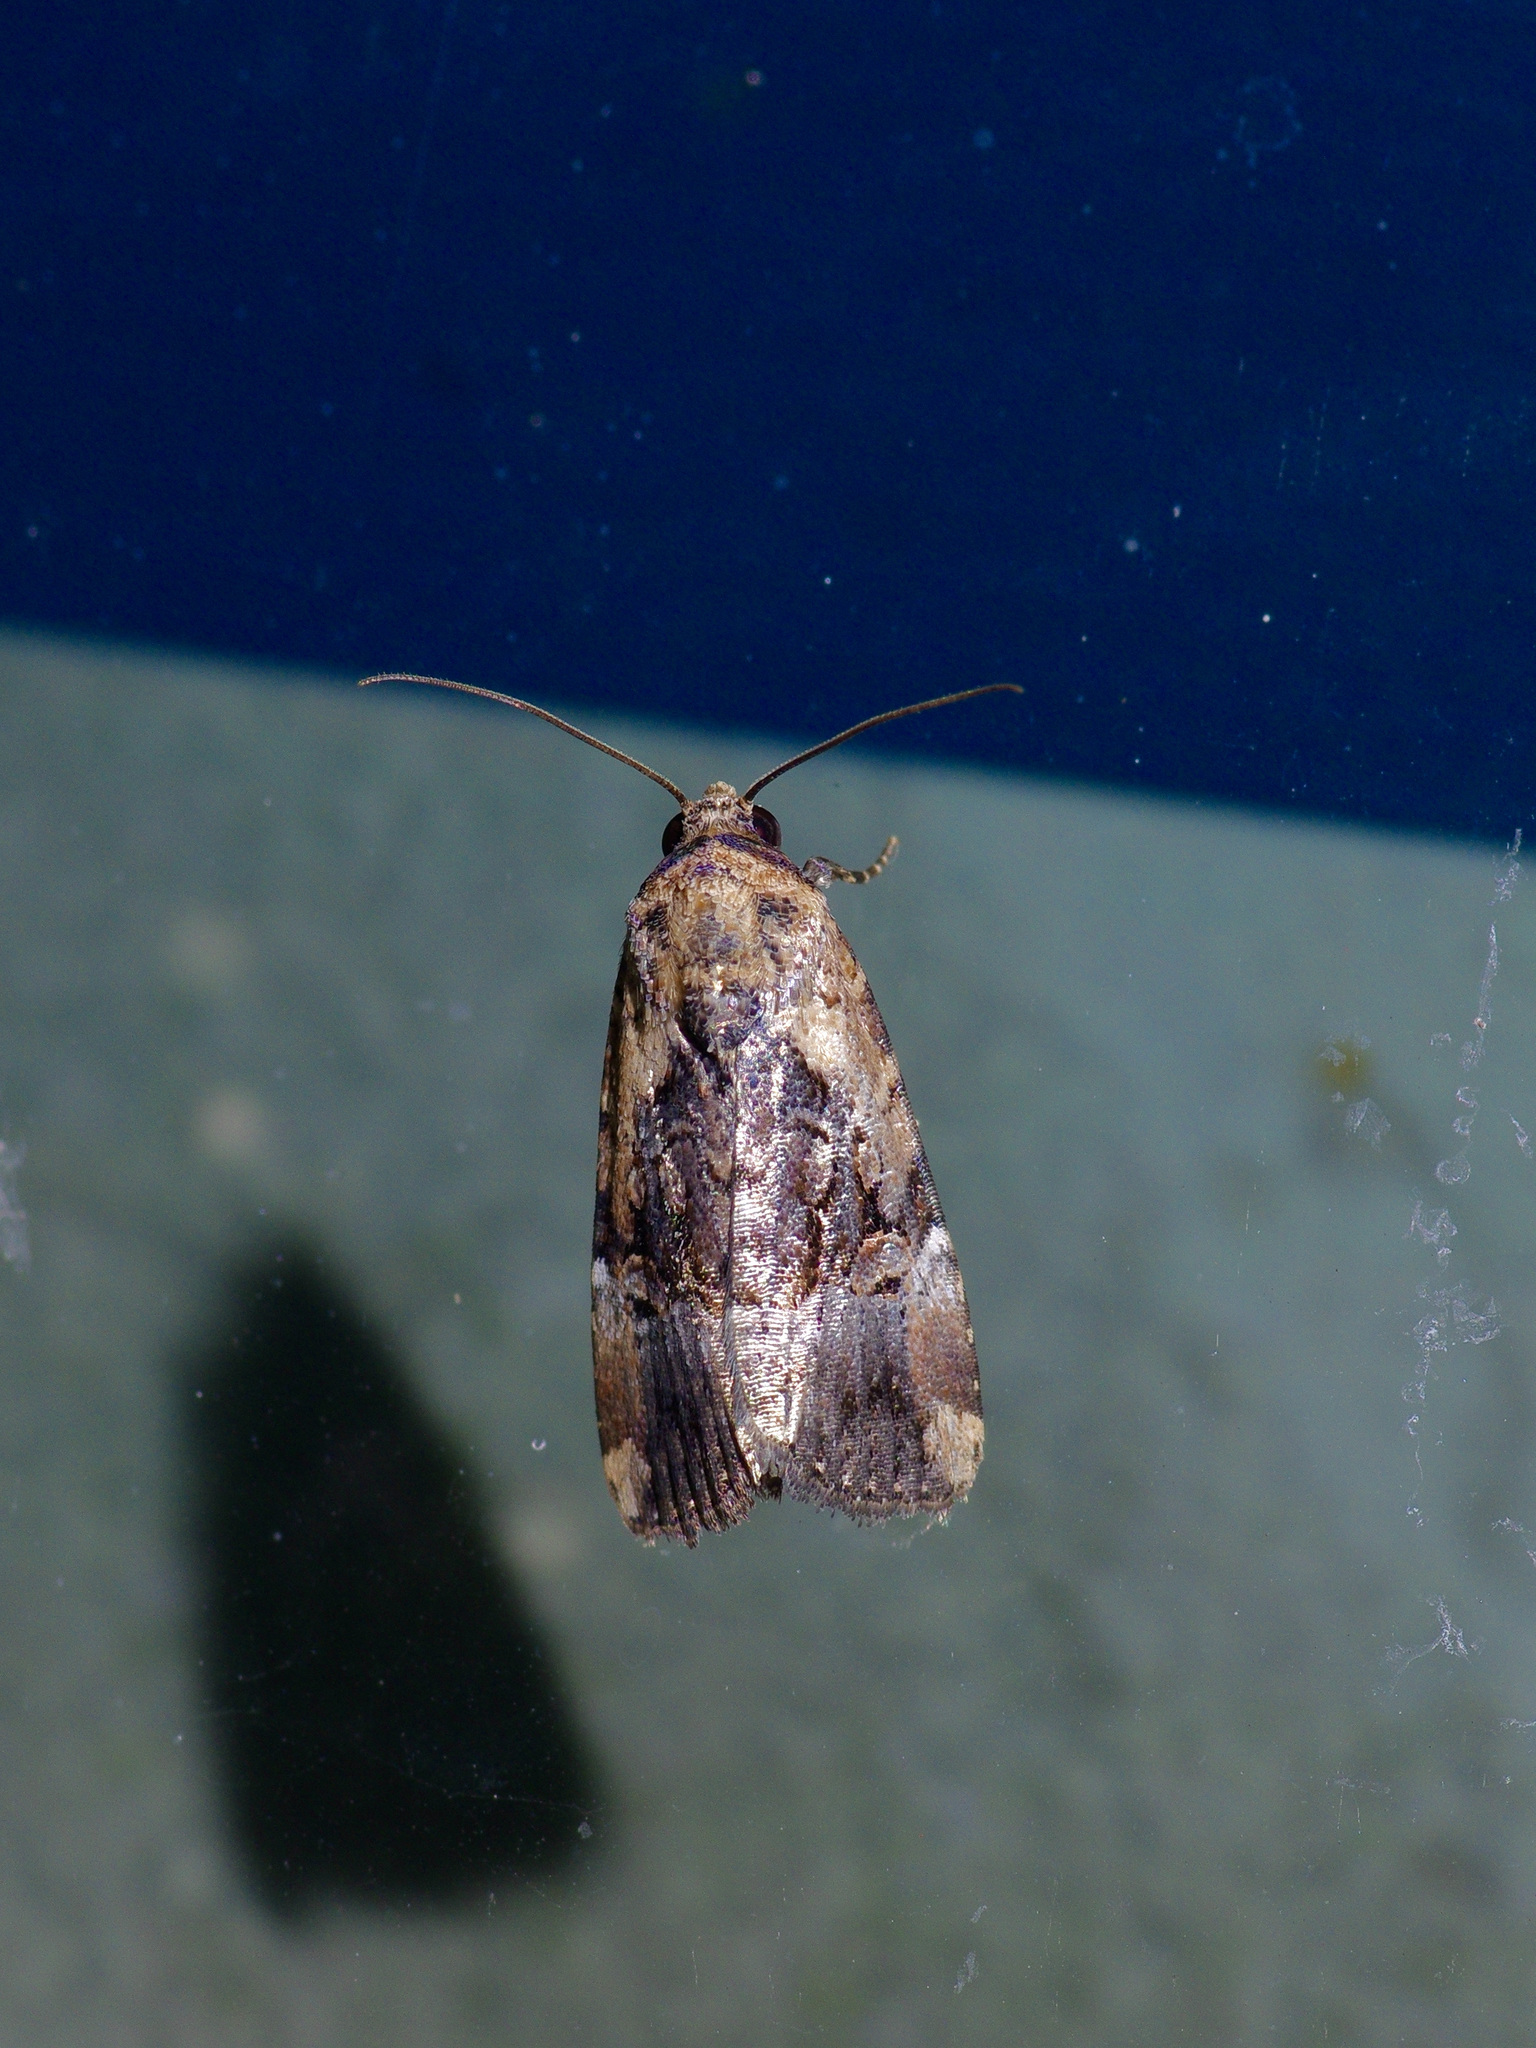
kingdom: Animalia
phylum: Arthropoda
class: Insecta
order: Lepidoptera
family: Noctuidae
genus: Elaphria
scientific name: Elaphria chalcedonia
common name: Chalcedony midget
